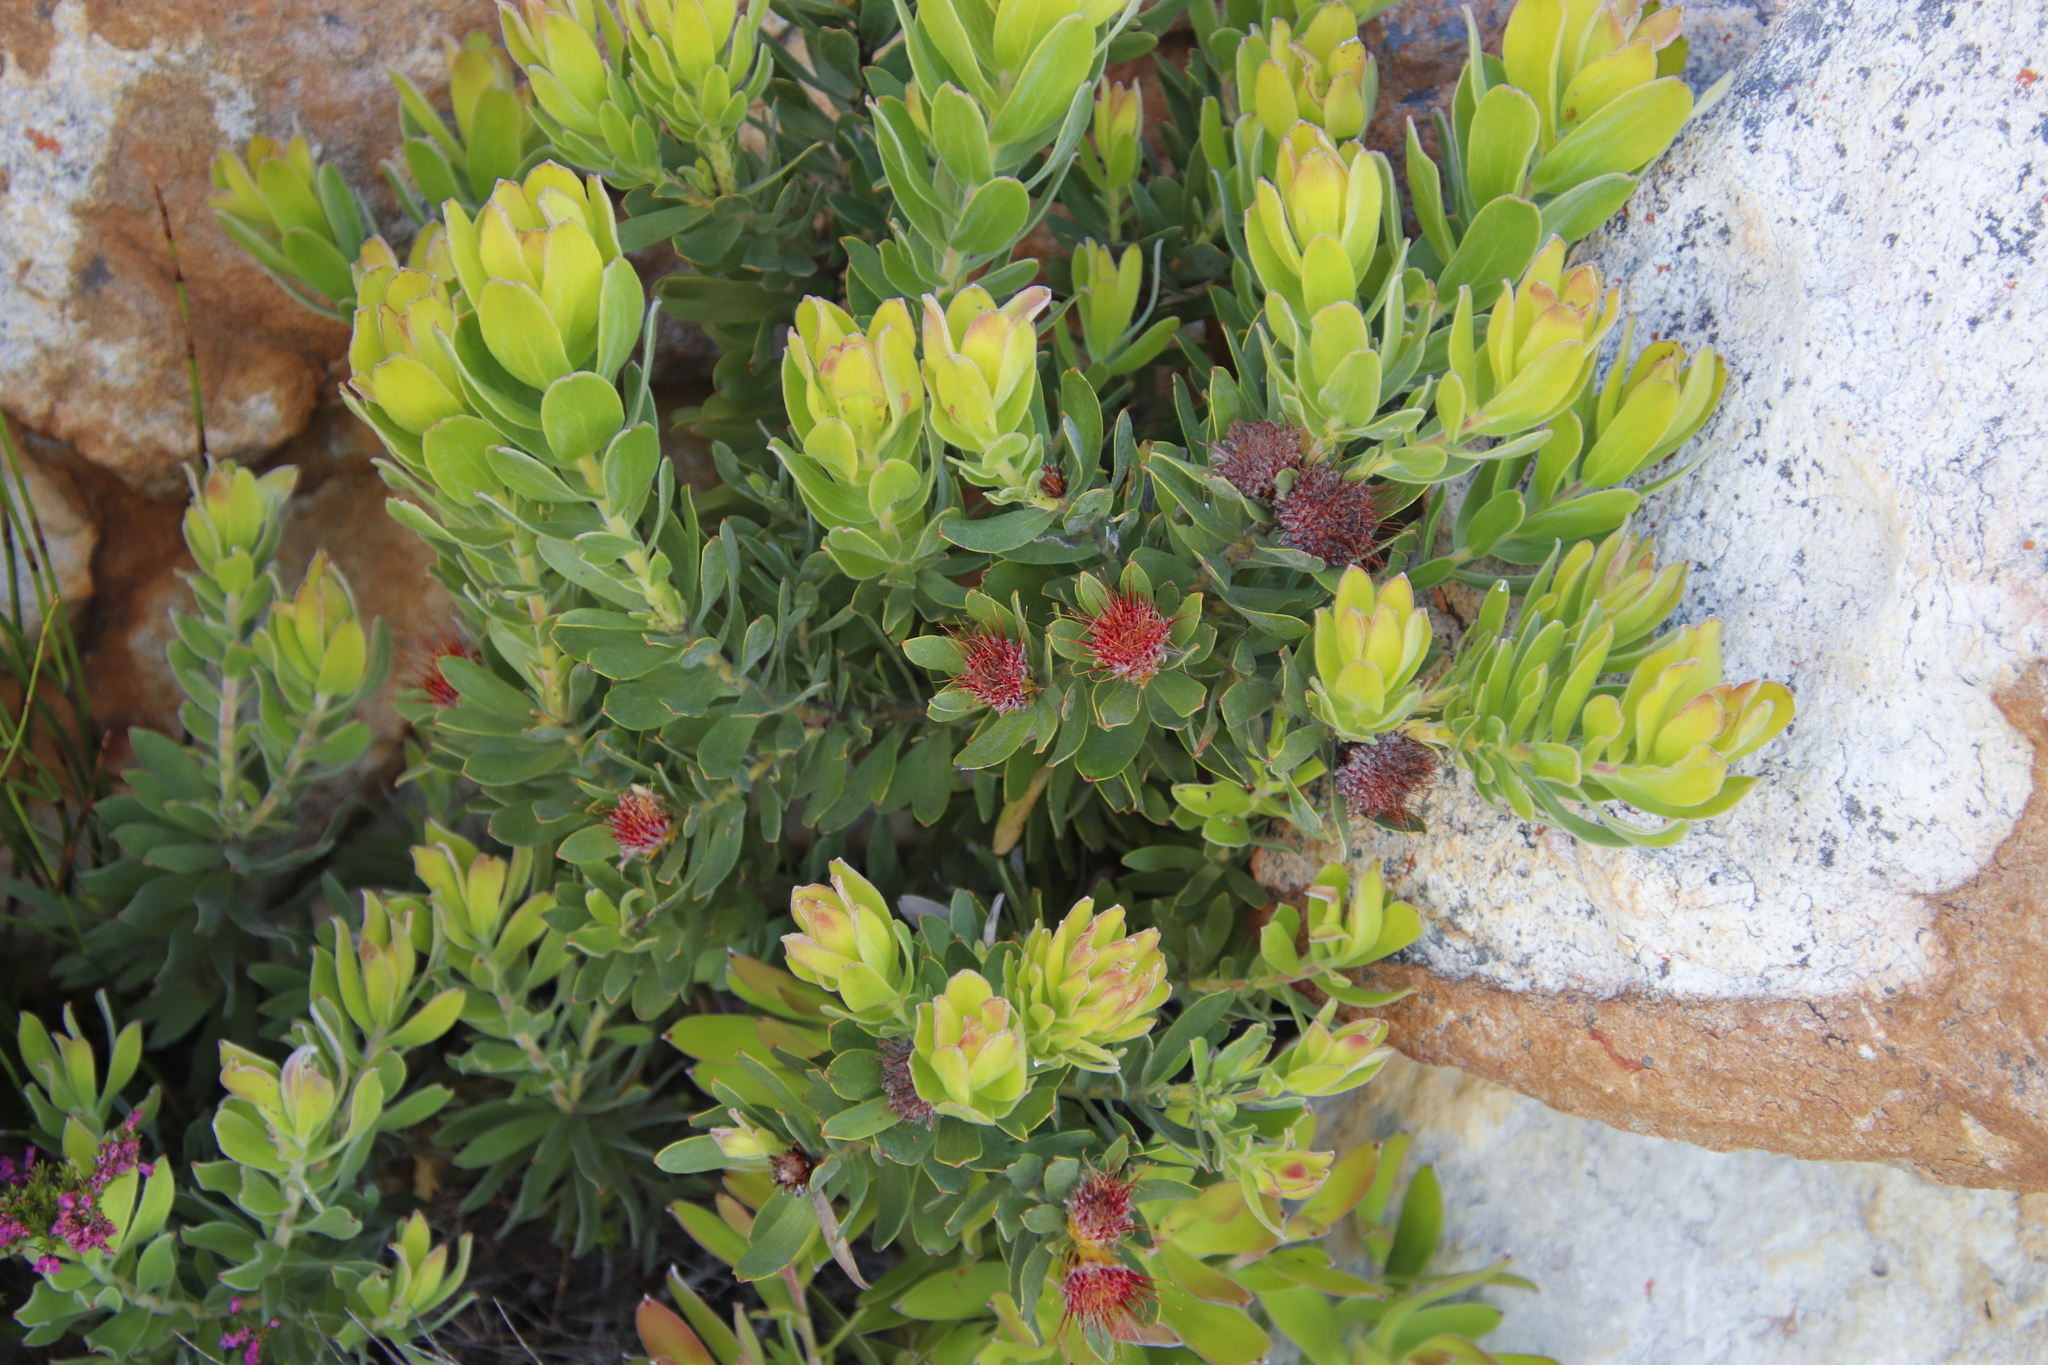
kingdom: Plantae
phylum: Tracheophyta
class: Magnoliopsida
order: Proteales
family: Proteaceae
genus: Leucospermum
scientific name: Leucospermum oleifolium
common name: Matches
